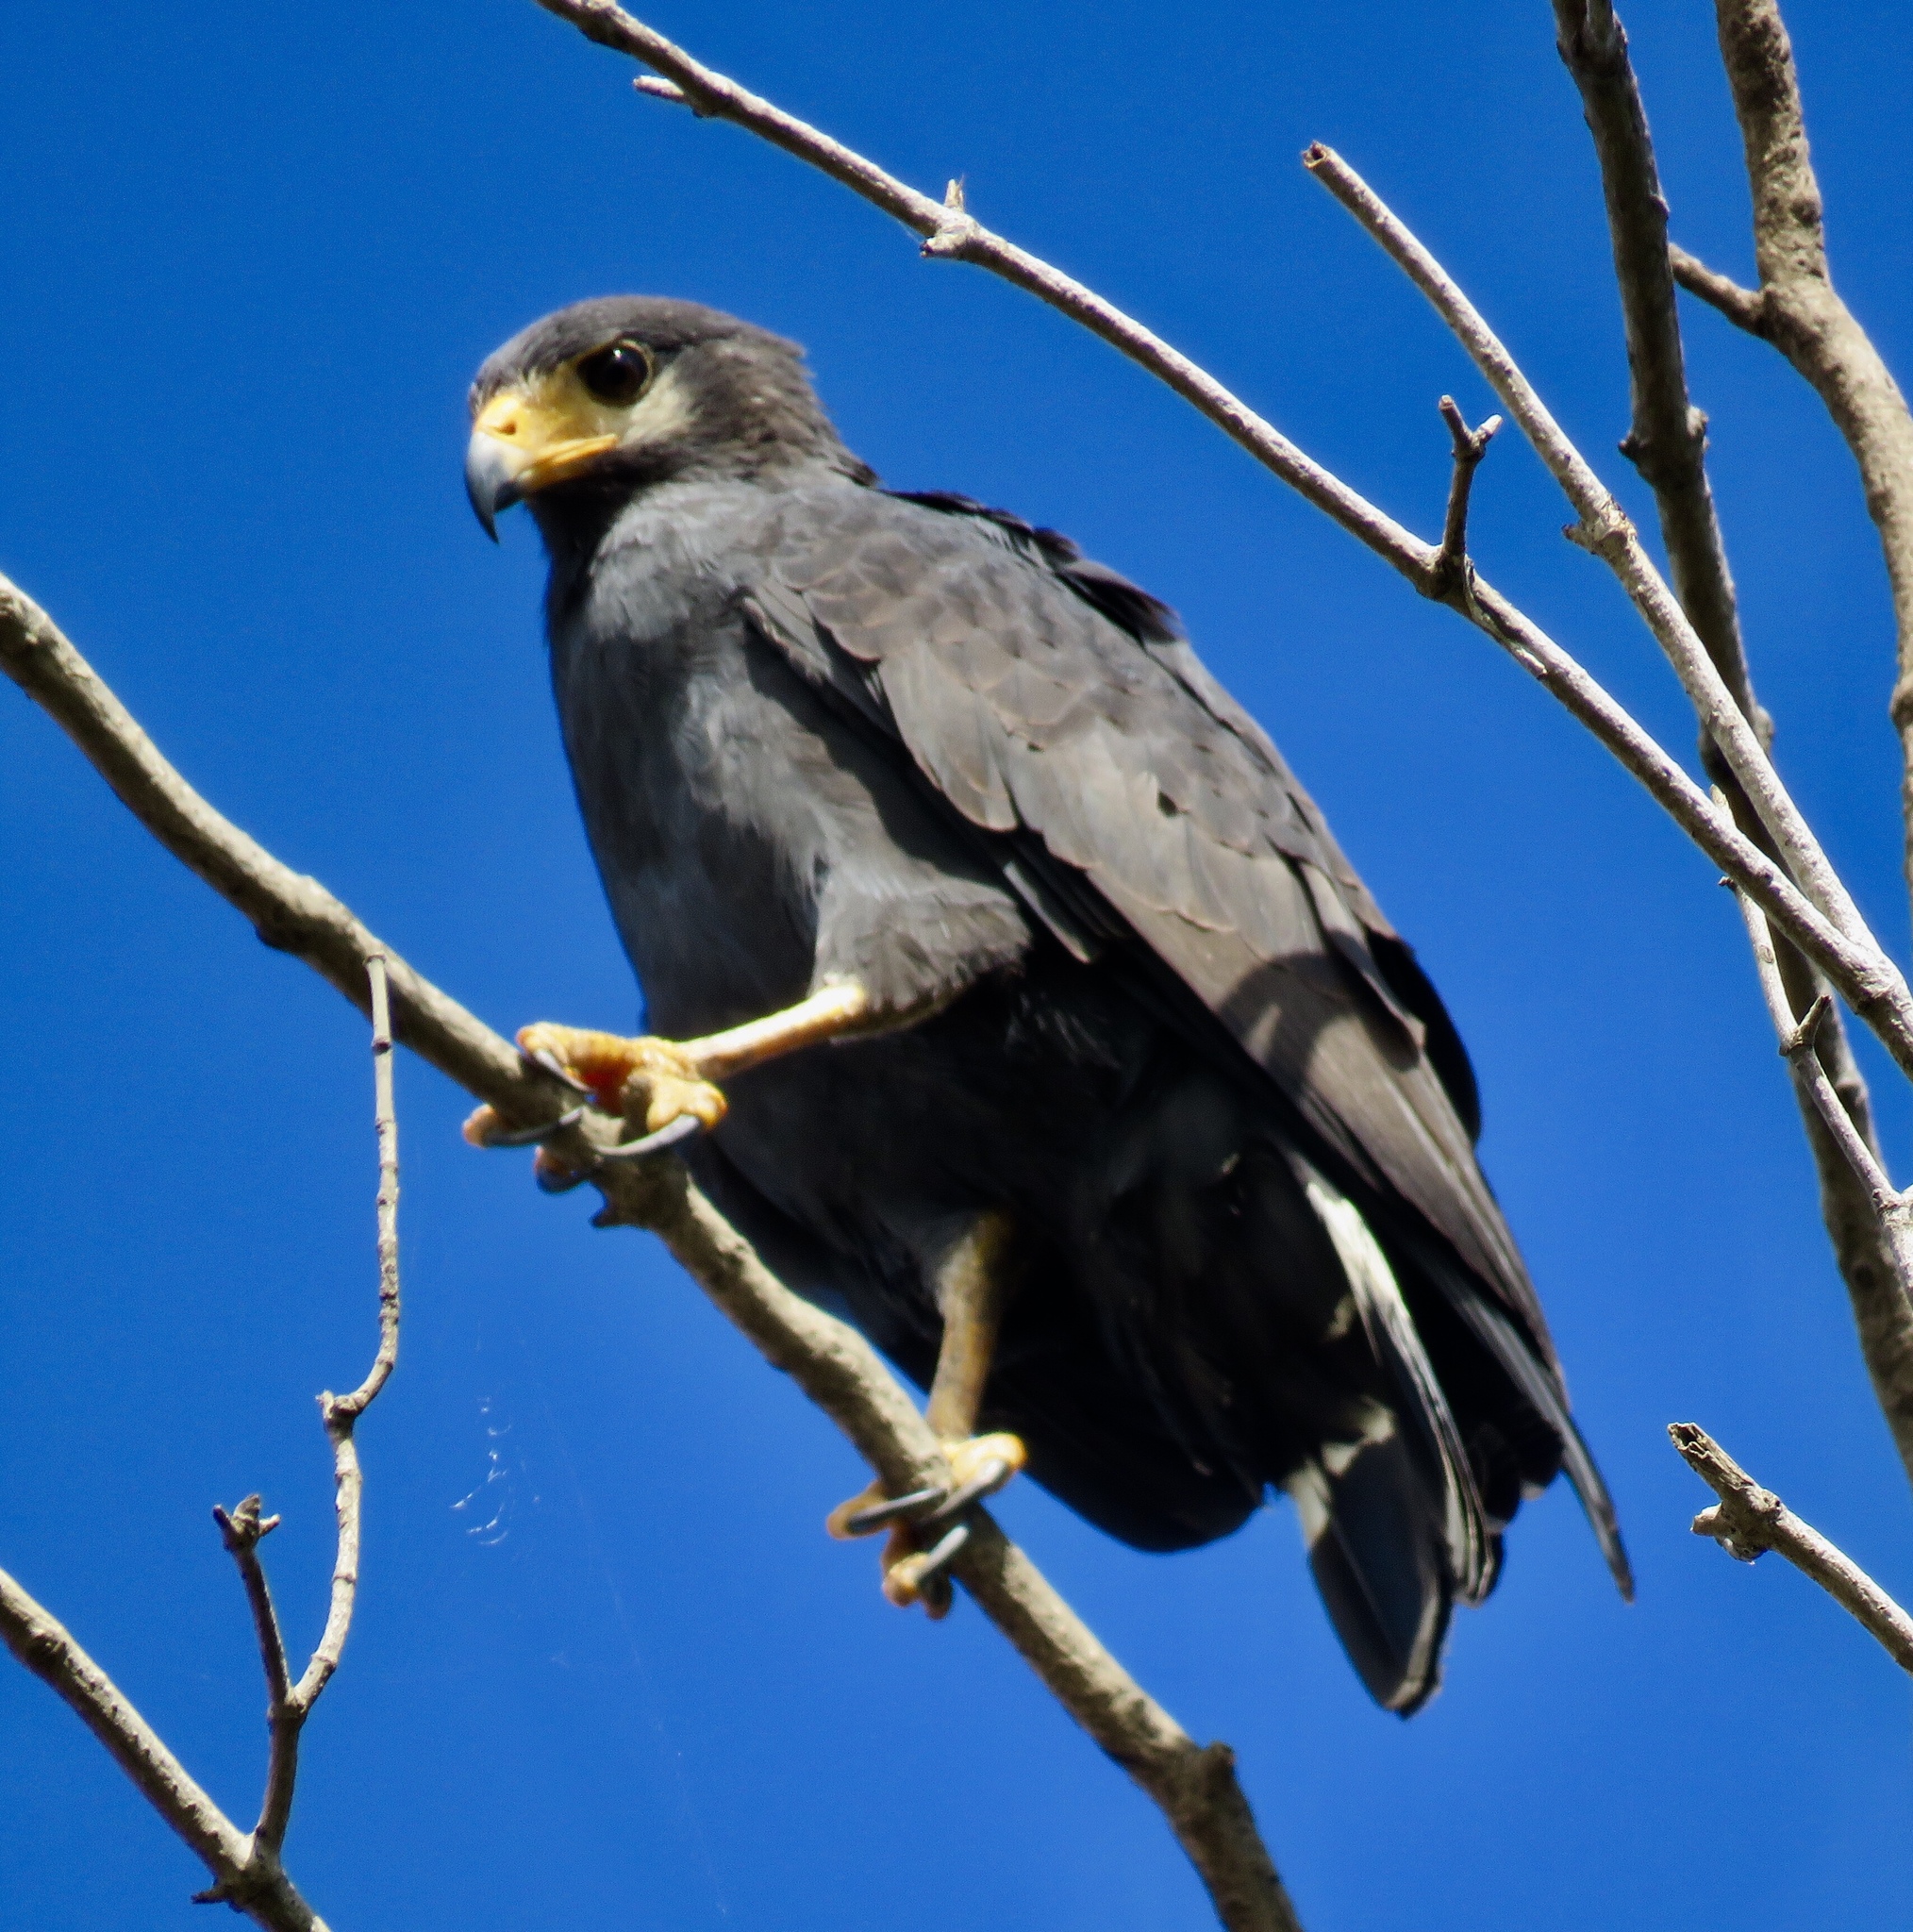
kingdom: Animalia
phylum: Chordata
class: Aves
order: Accipitriformes
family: Accipitridae
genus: Buteogallus
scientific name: Buteogallus anthracinus
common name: Common black hawk
